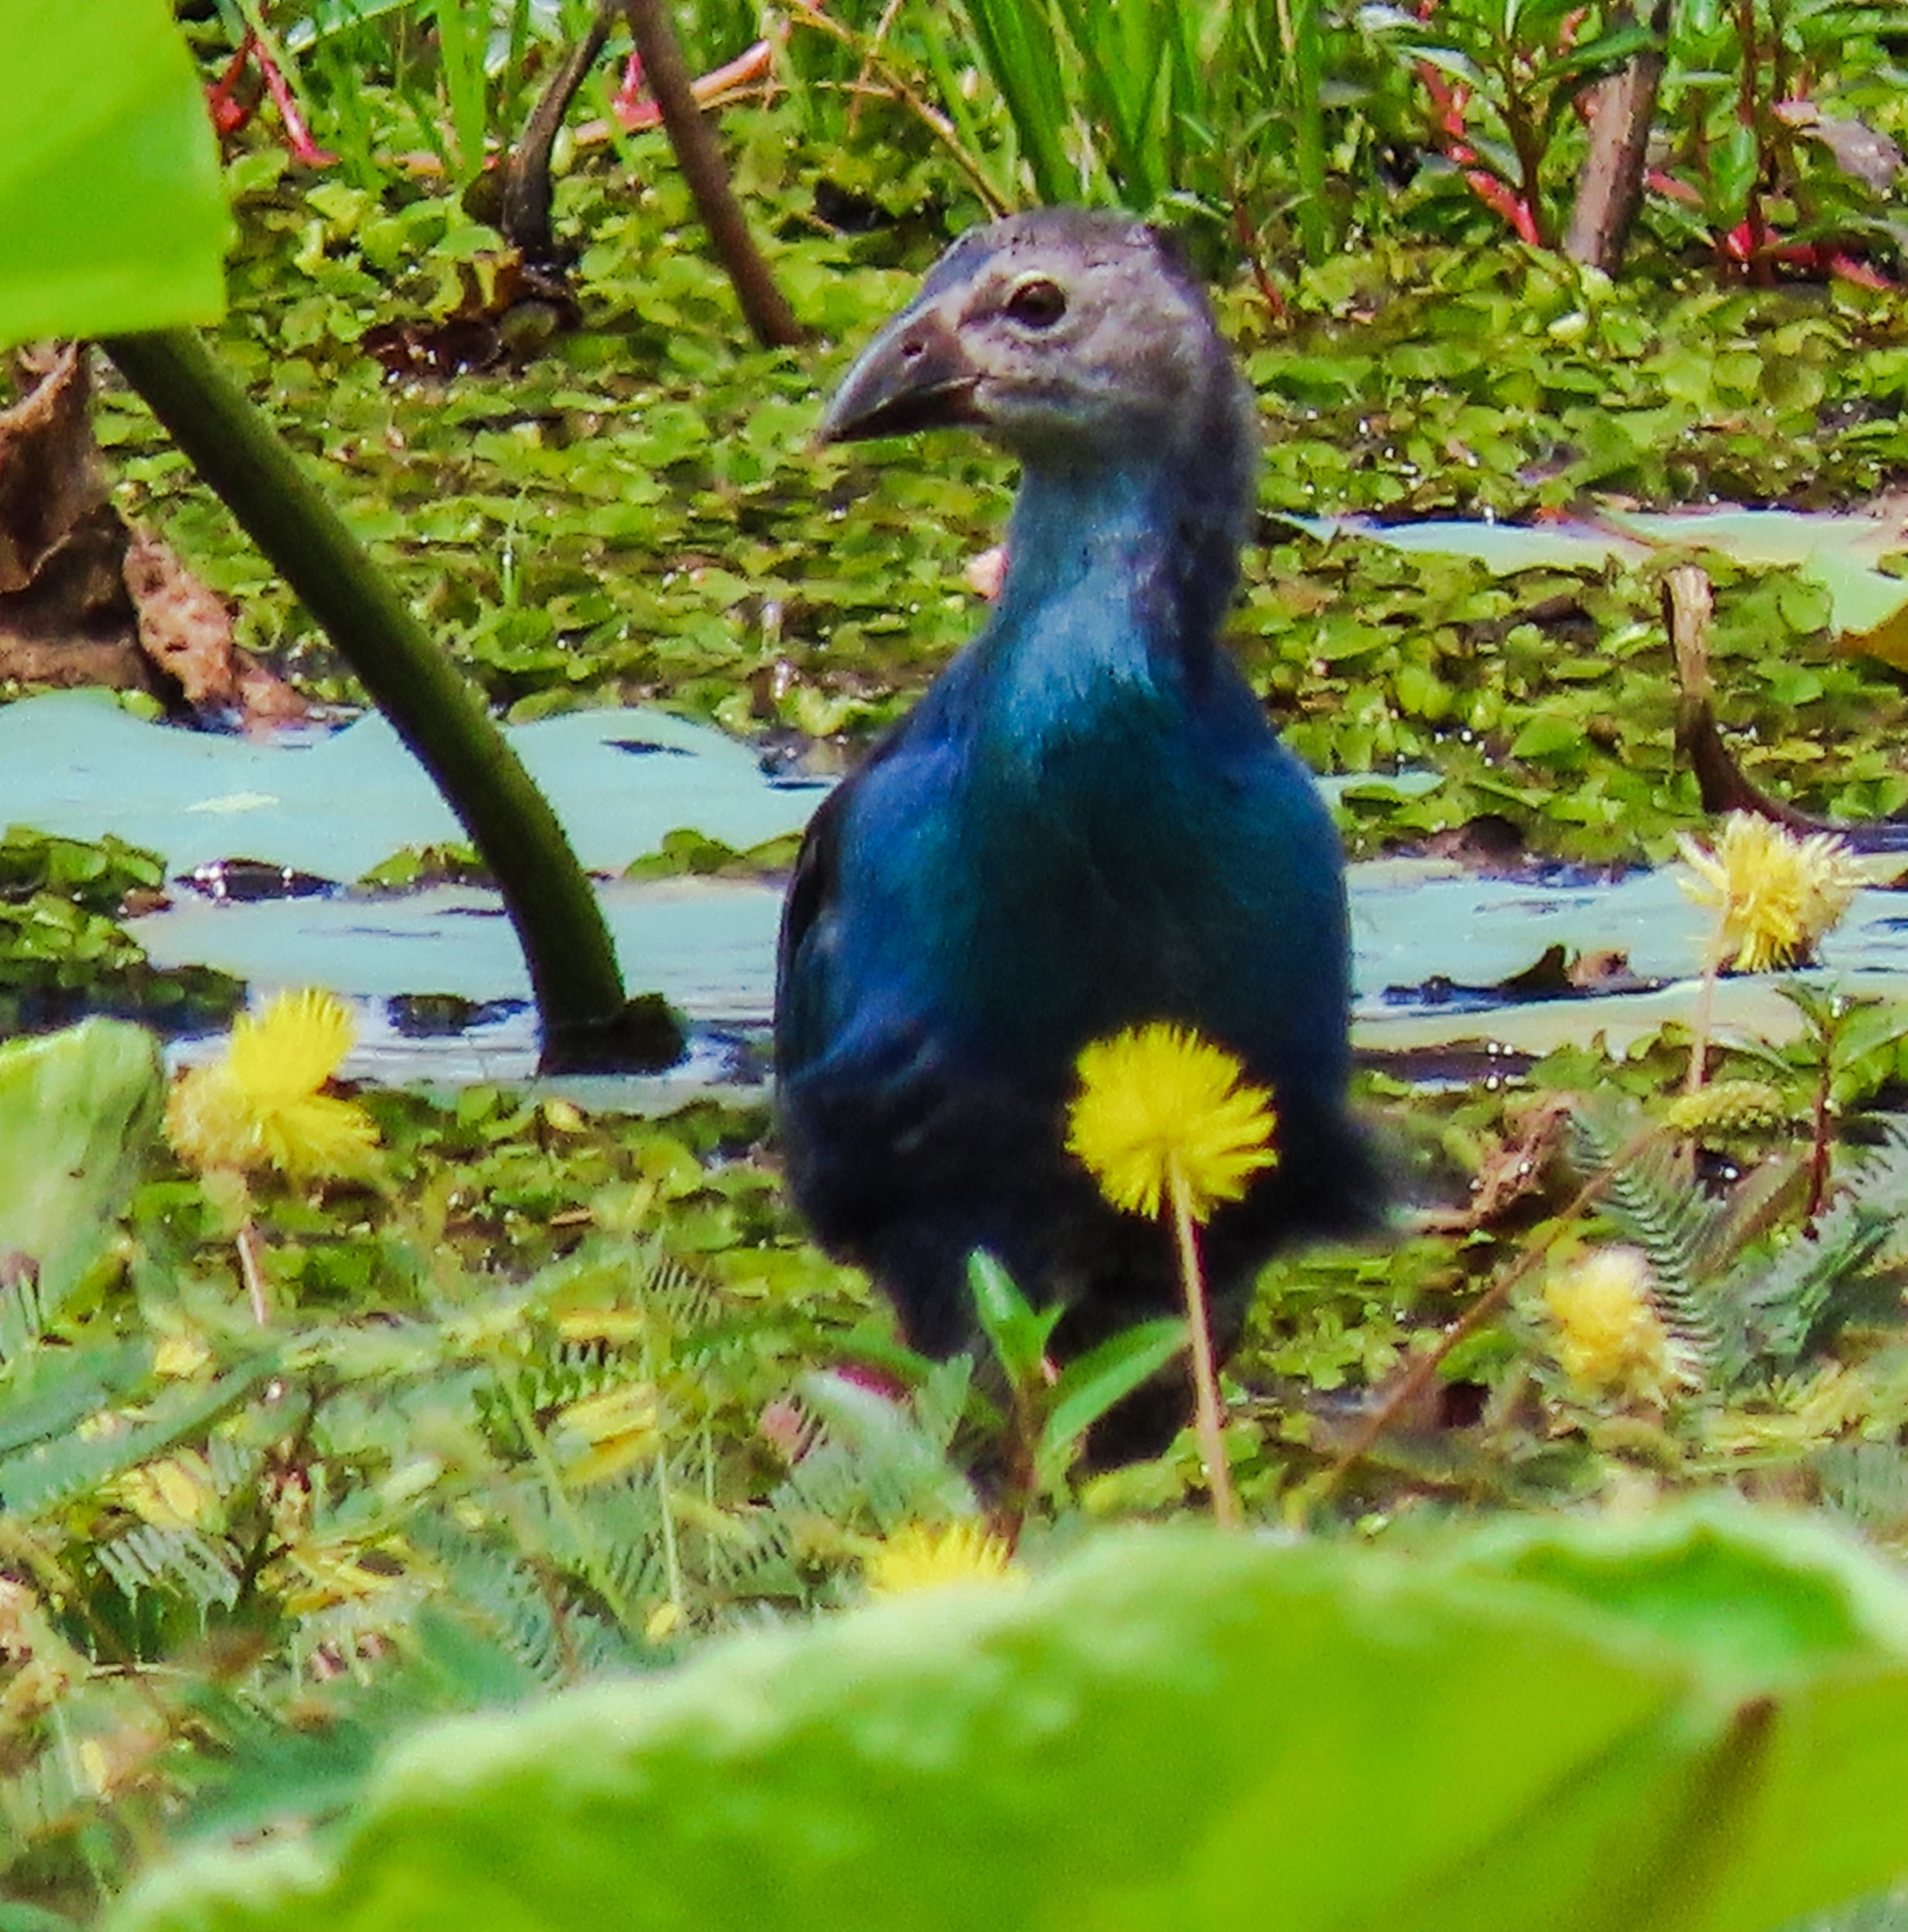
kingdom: Animalia
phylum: Chordata
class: Aves
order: Gruiformes
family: Rallidae
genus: Porphyrio
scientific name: Porphyrio porphyrio
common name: Purple swamphen
